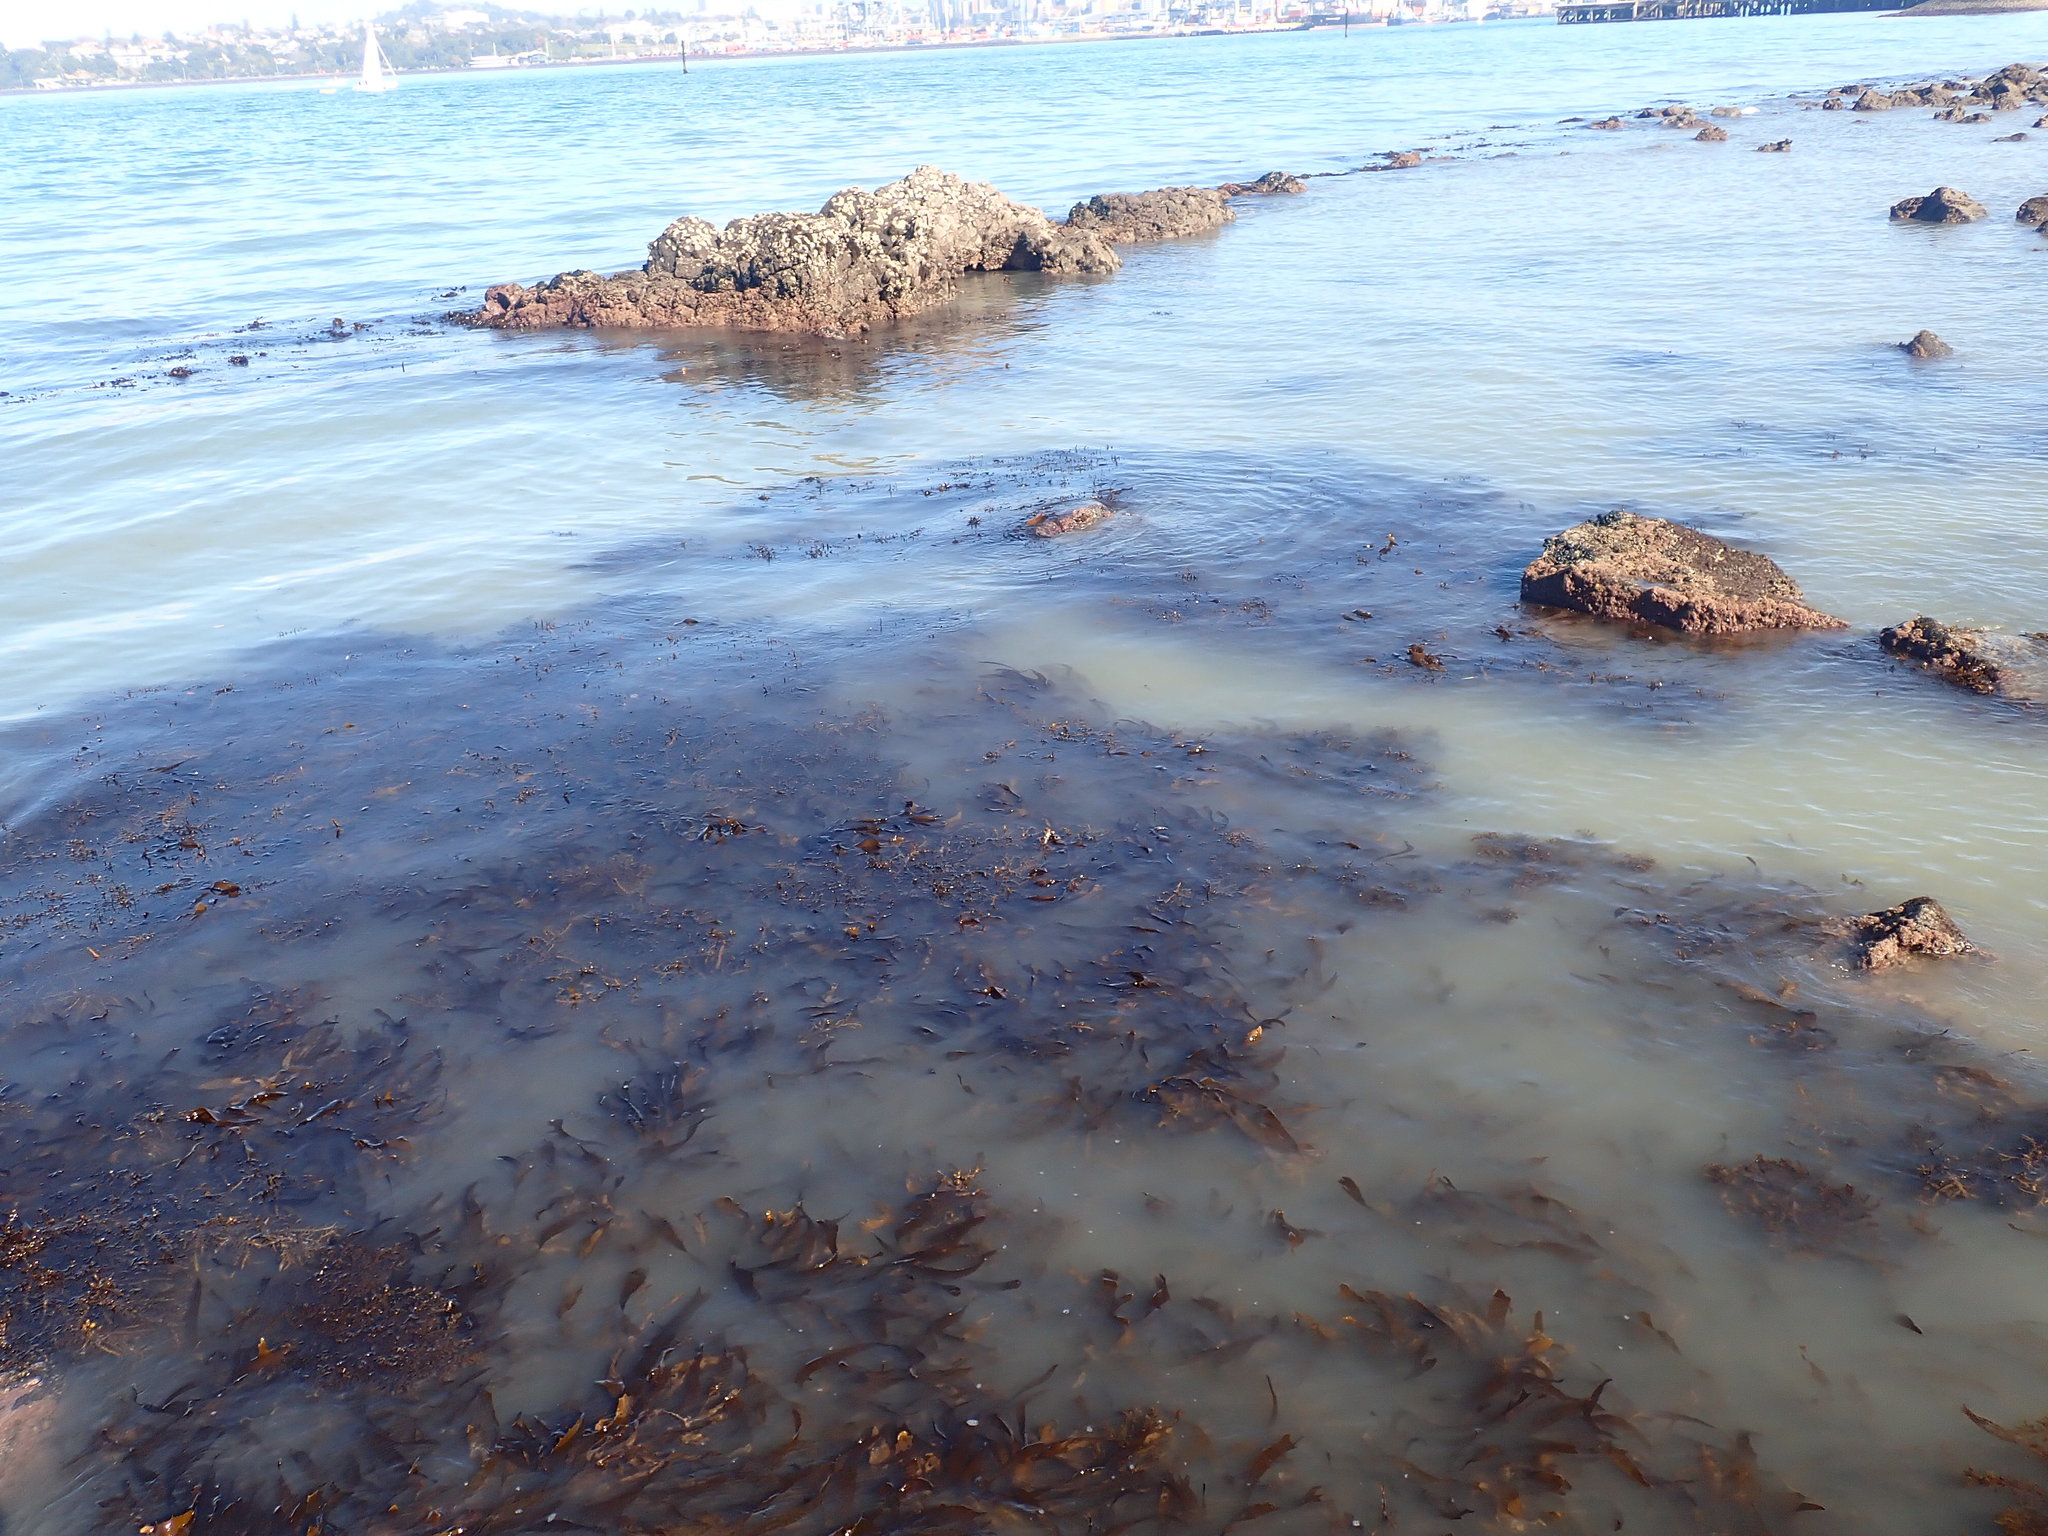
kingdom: Chromista
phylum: Ochrophyta
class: Phaeophyceae
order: Laminariales
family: Lessoniaceae
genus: Ecklonia
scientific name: Ecklonia radiata
